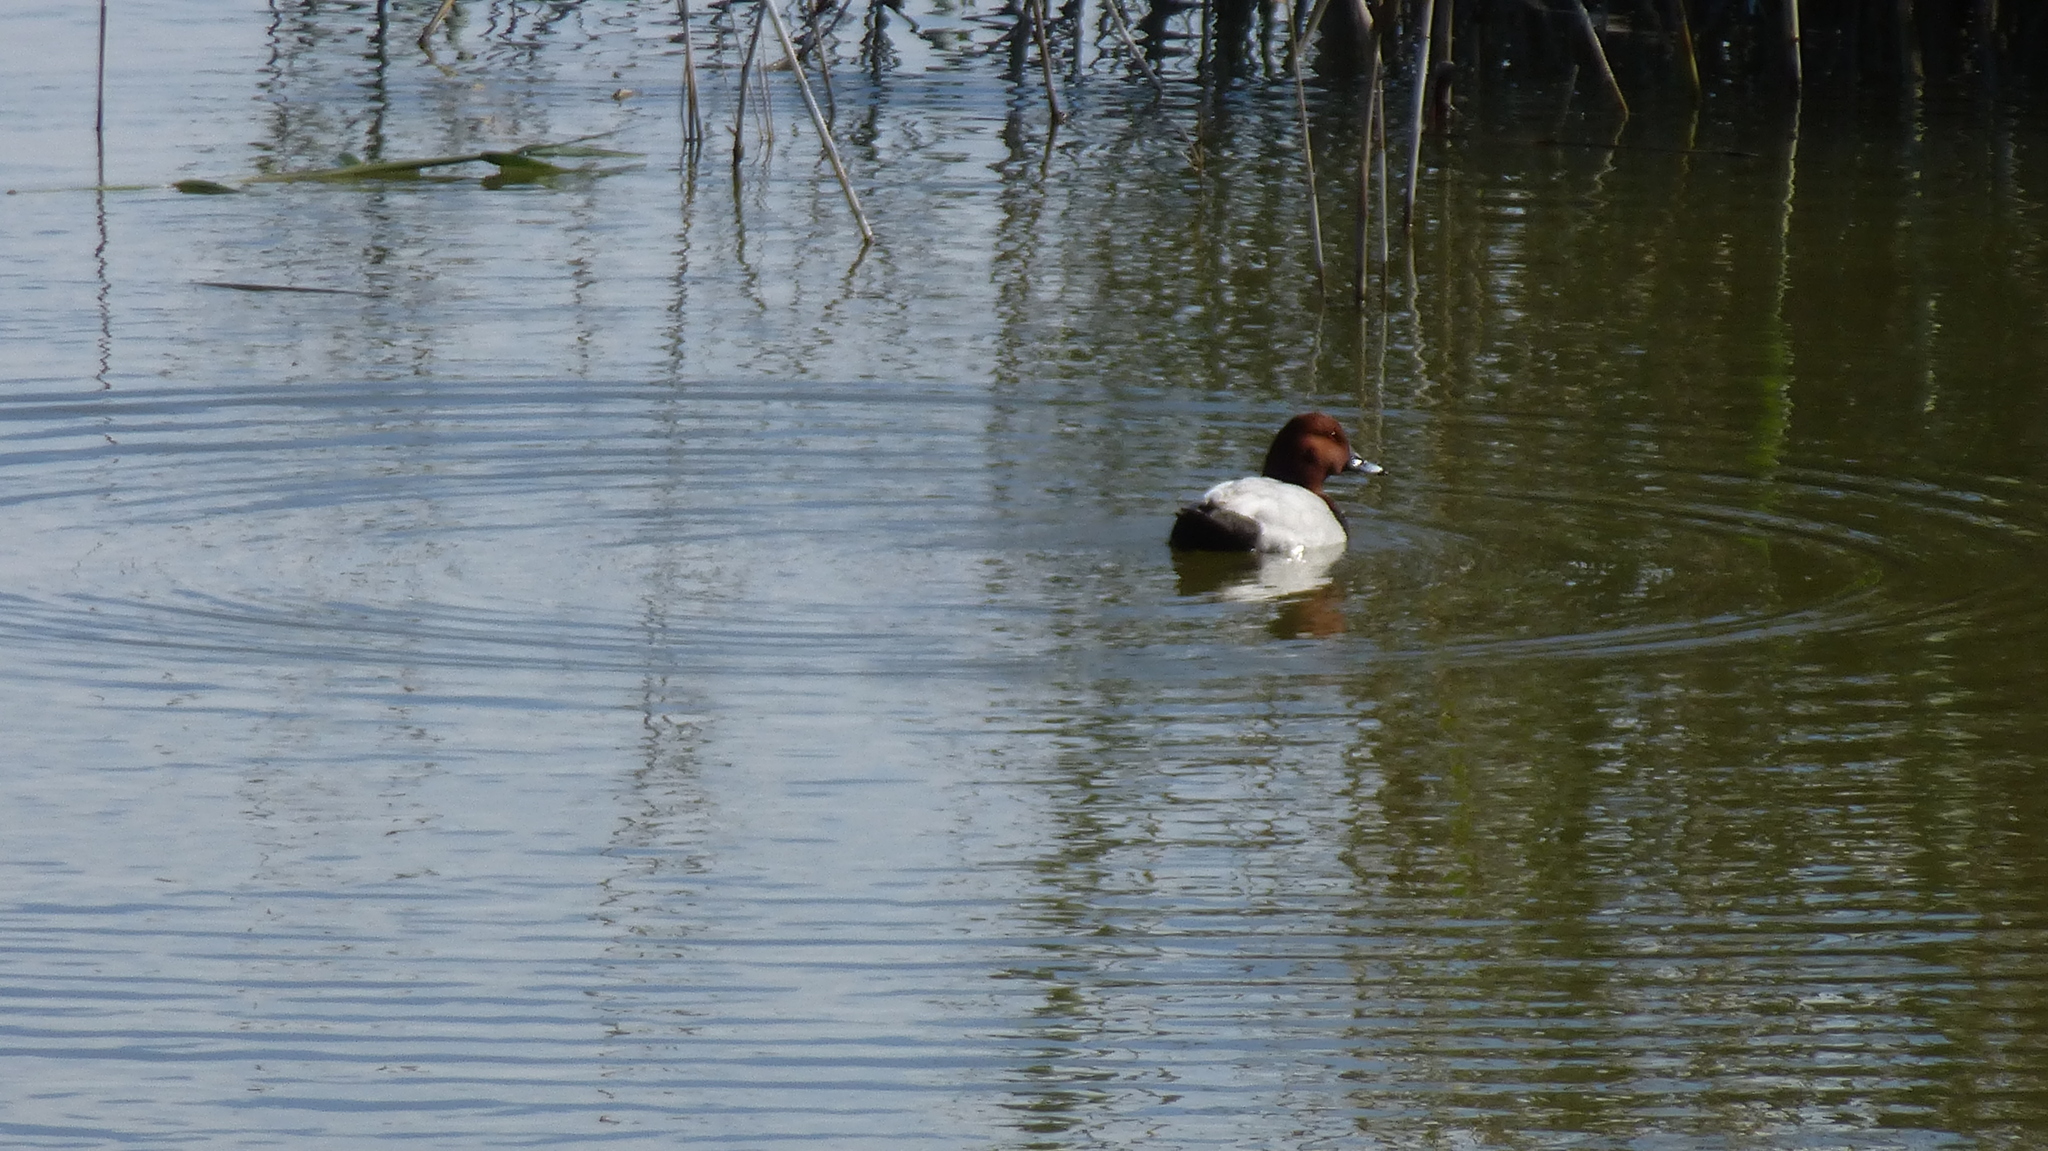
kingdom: Animalia
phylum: Chordata
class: Aves
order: Anseriformes
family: Anatidae
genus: Aythya
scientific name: Aythya ferina
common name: Common pochard
